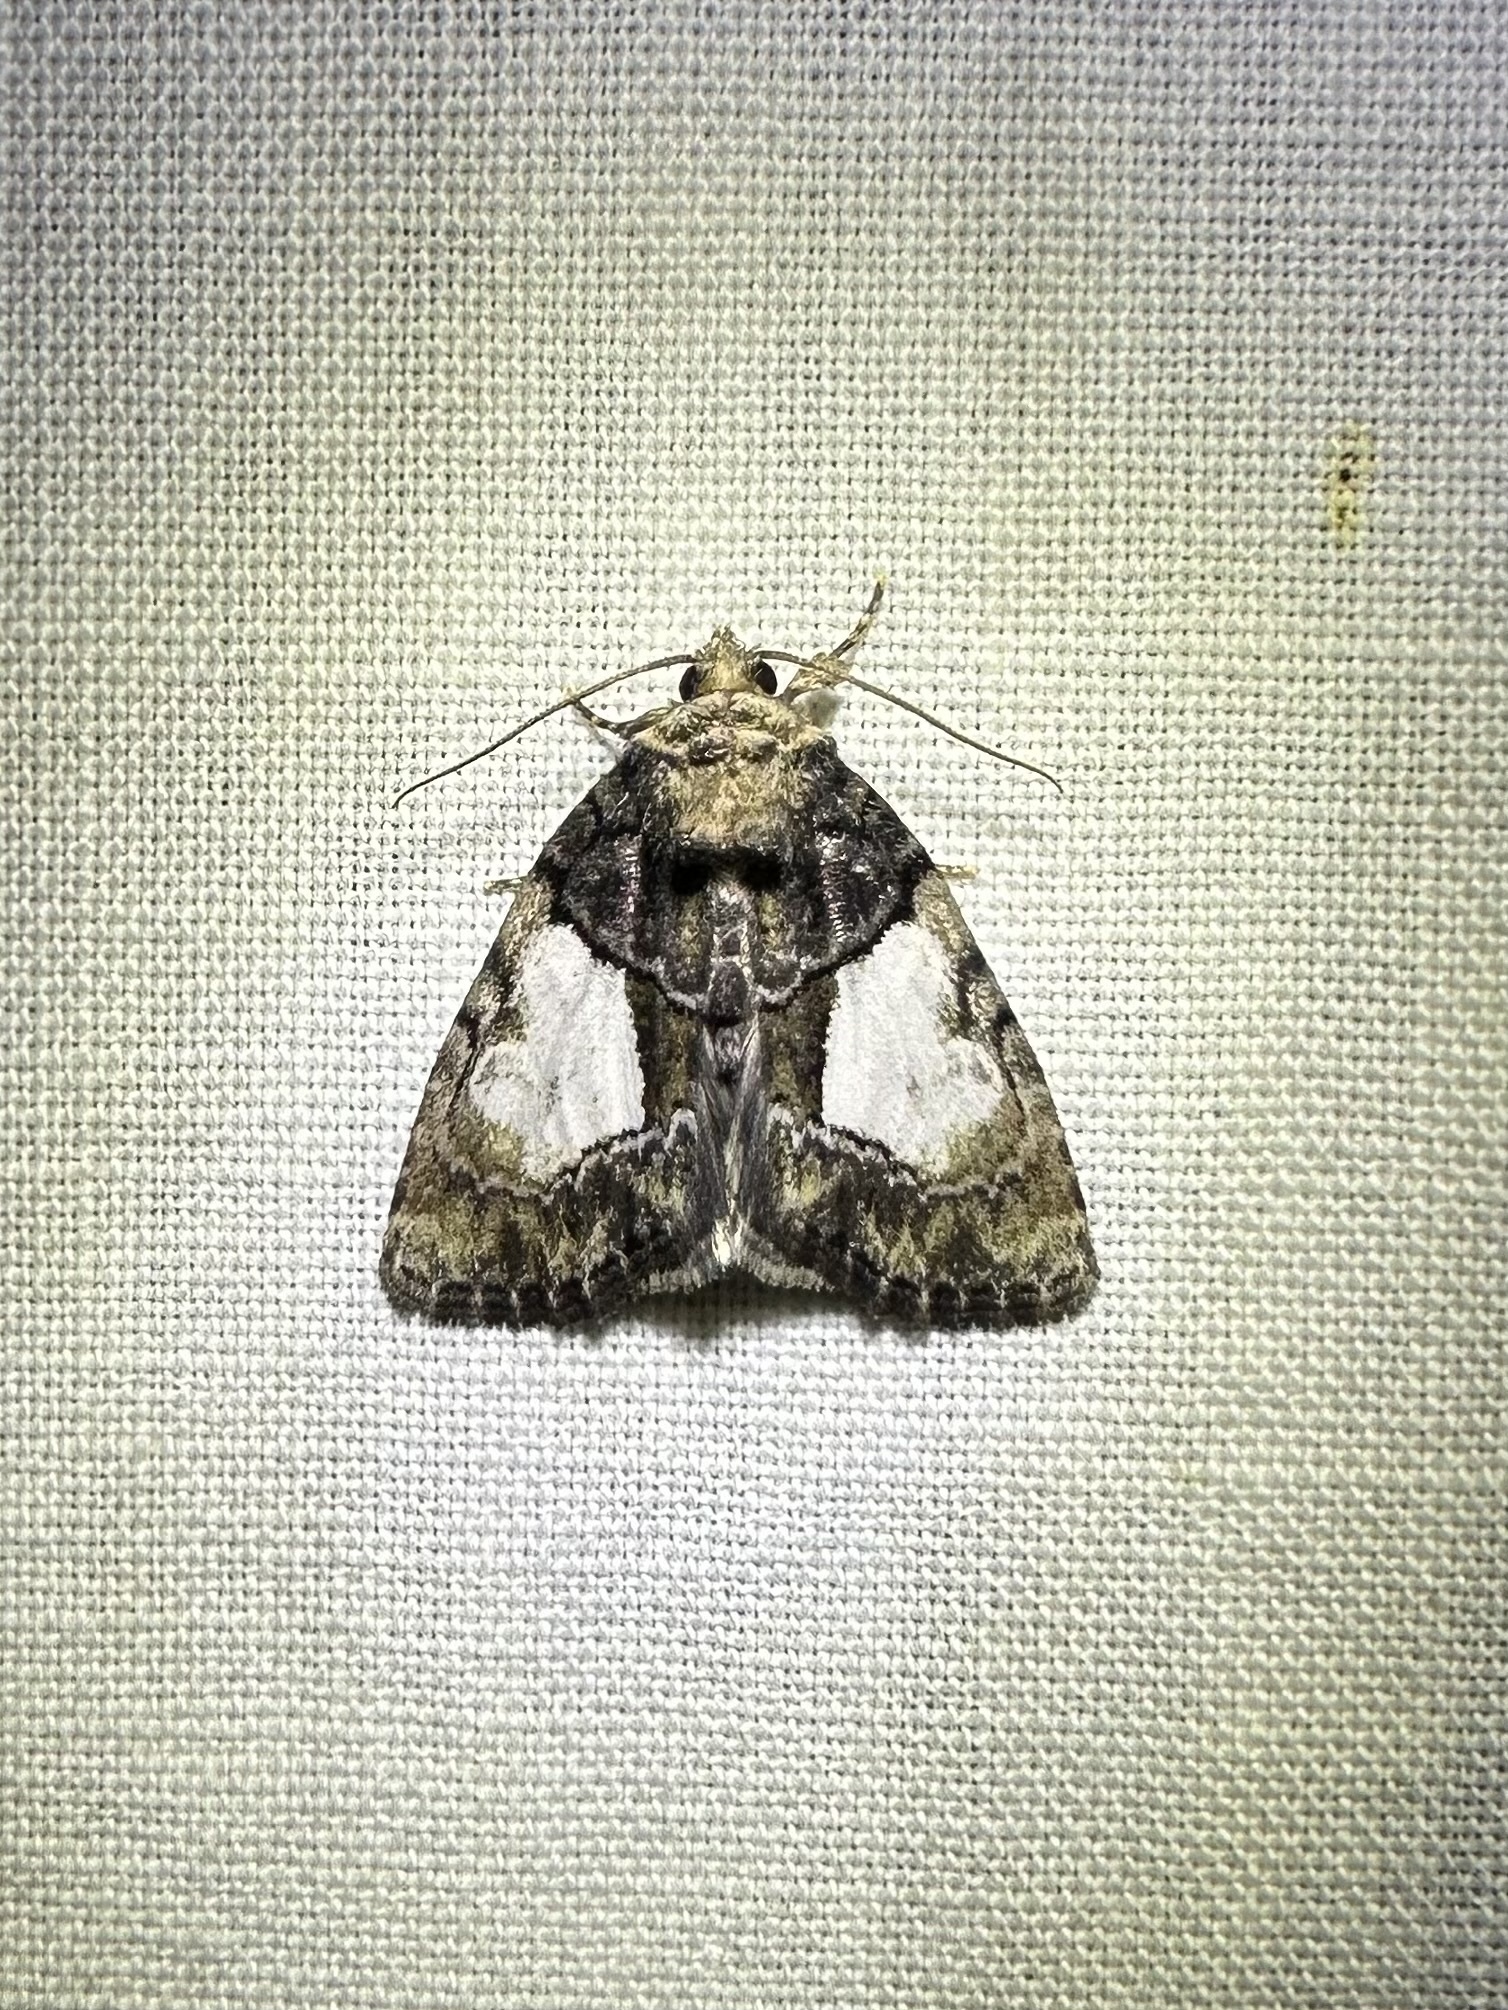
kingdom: Animalia
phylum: Arthropoda
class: Insecta
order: Lepidoptera
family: Noctuidae
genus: Chytonix
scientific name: Chytonix palliatricula
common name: Cloaked marvel
